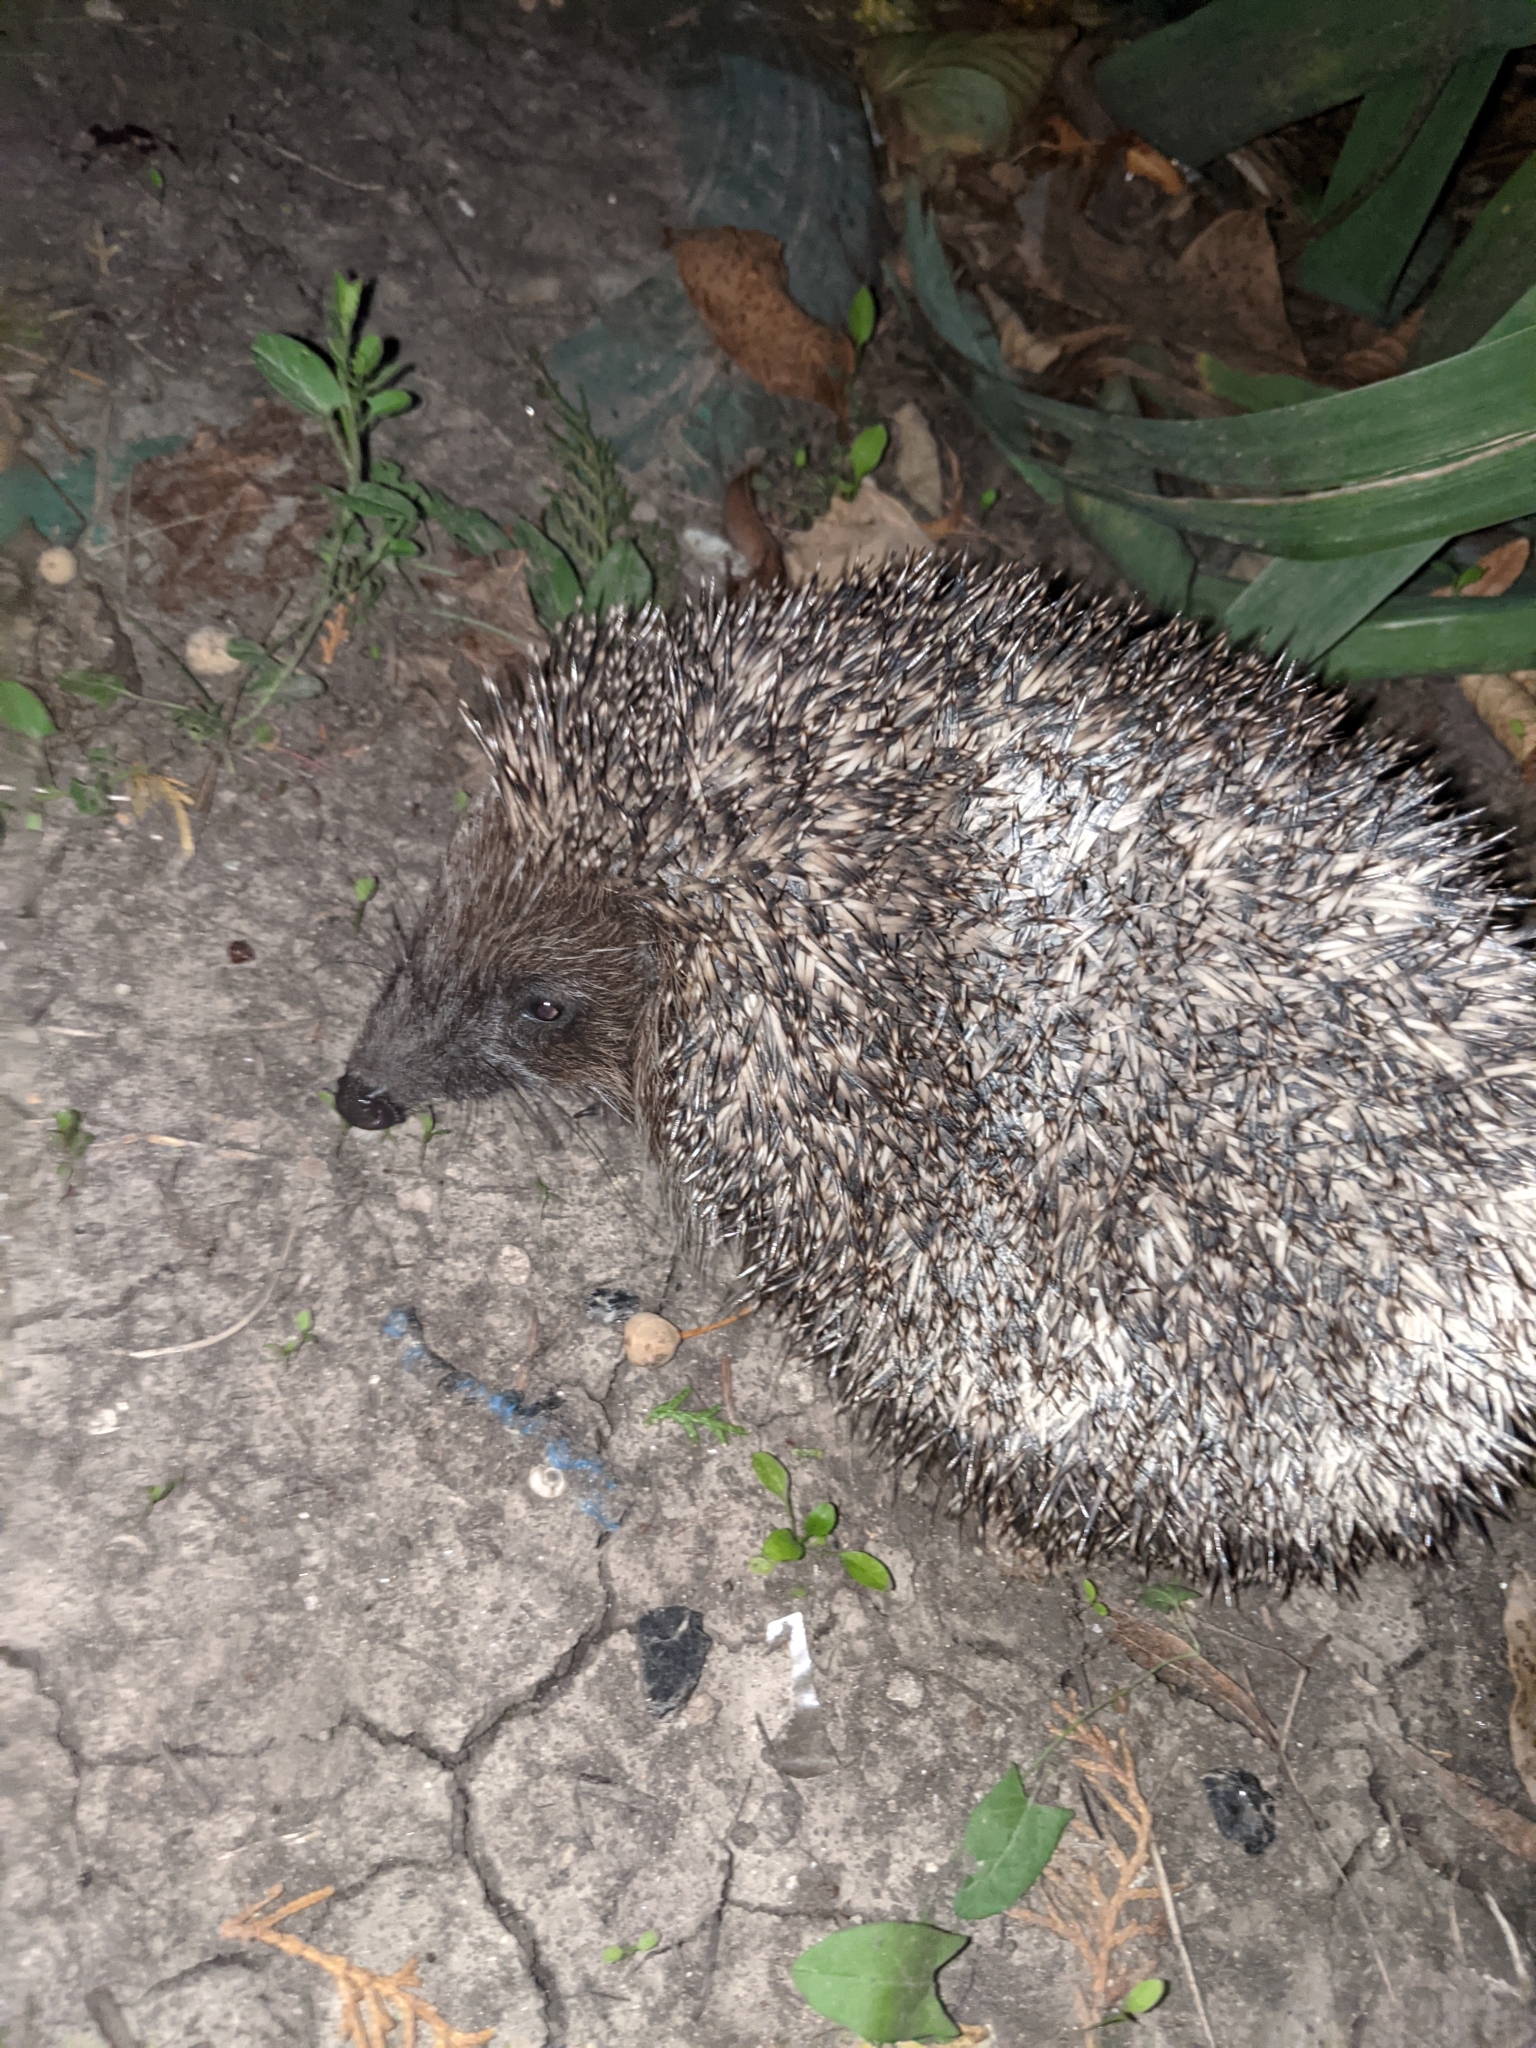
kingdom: Animalia
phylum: Chordata
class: Mammalia
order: Erinaceomorpha
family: Erinaceidae
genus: Erinaceus
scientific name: Erinaceus roumanicus
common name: Northern white-breasted hedgehog
